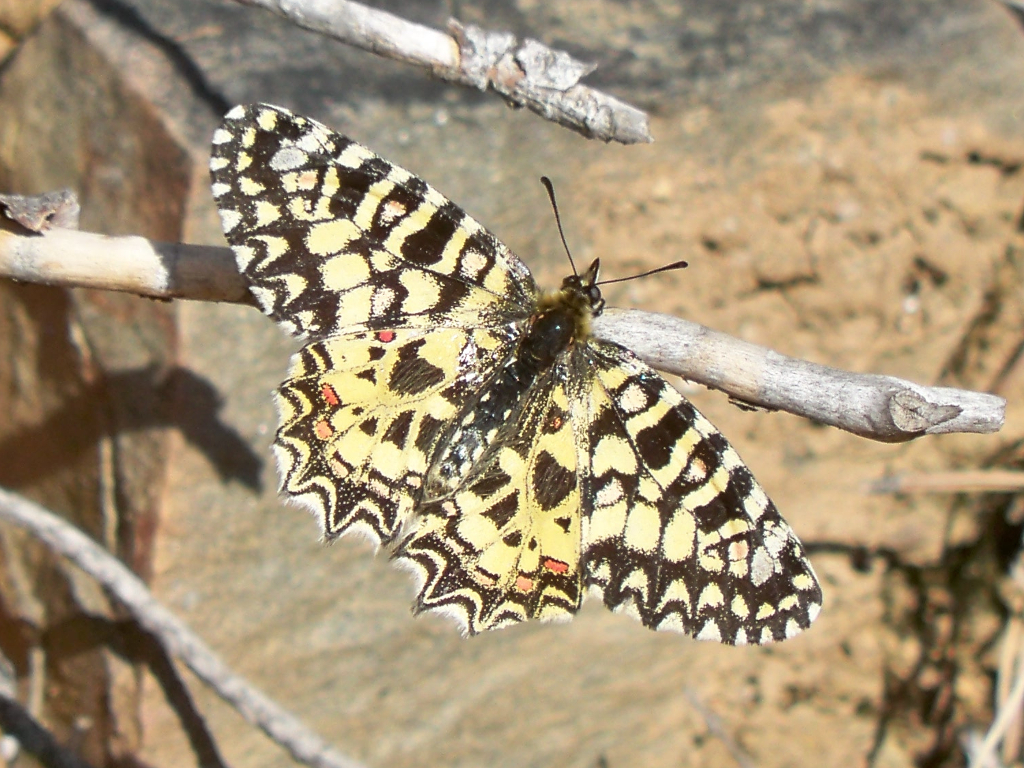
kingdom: Animalia
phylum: Arthropoda
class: Insecta
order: Lepidoptera
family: Papilionidae
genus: Zerynthia
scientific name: Zerynthia rumina
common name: Spanish festoon
